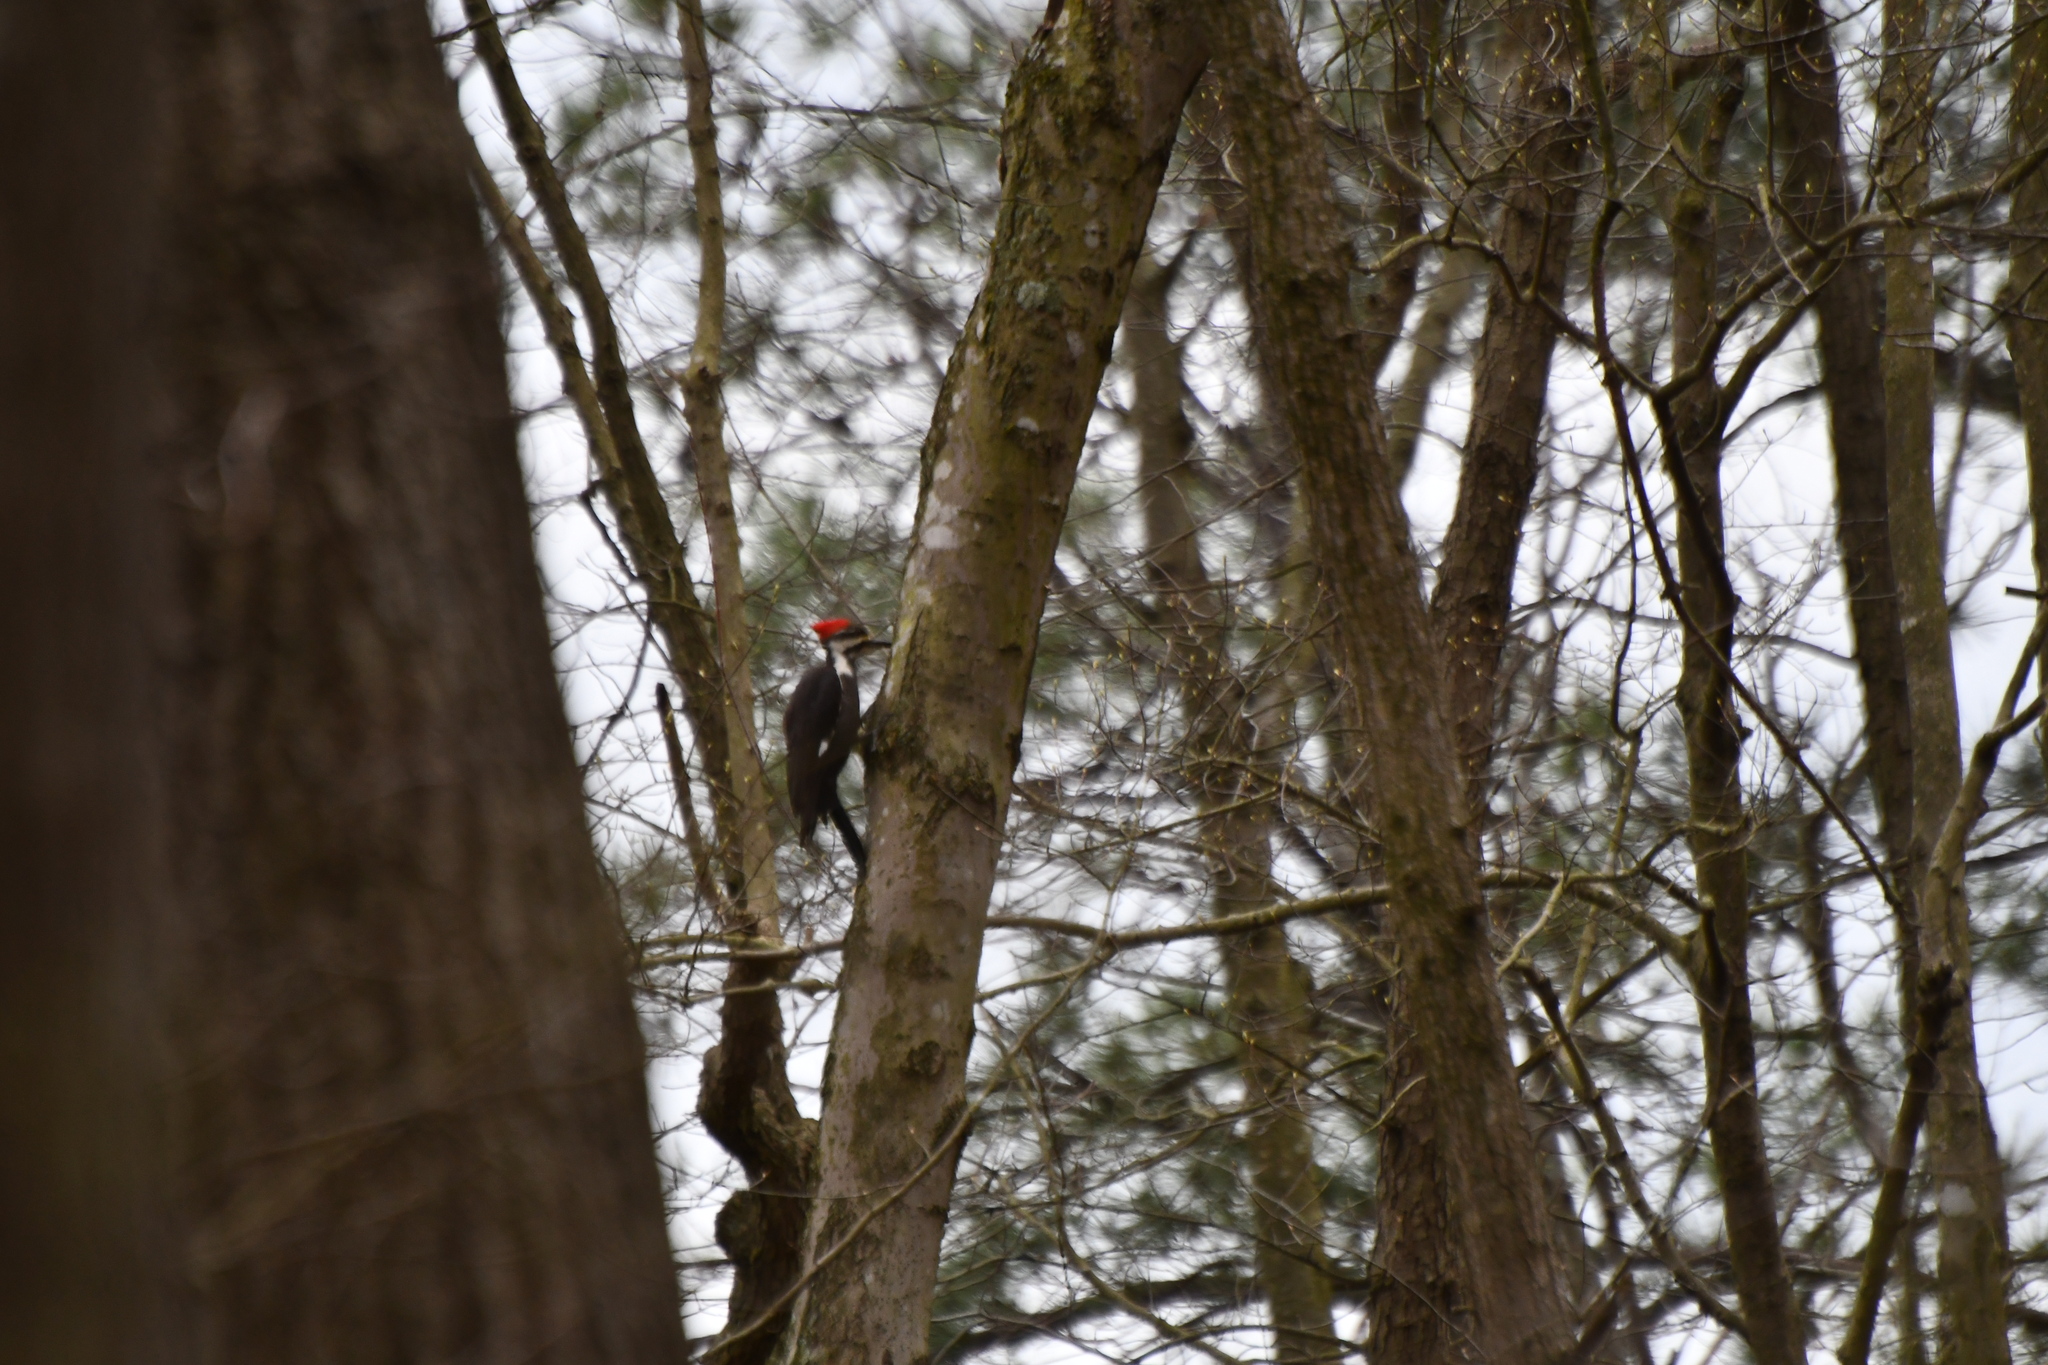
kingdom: Animalia
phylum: Chordata
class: Aves
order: Piciformes
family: Picidae
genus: Dryocopus
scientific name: Dryocopus pileatus
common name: Pileated woodpecker
